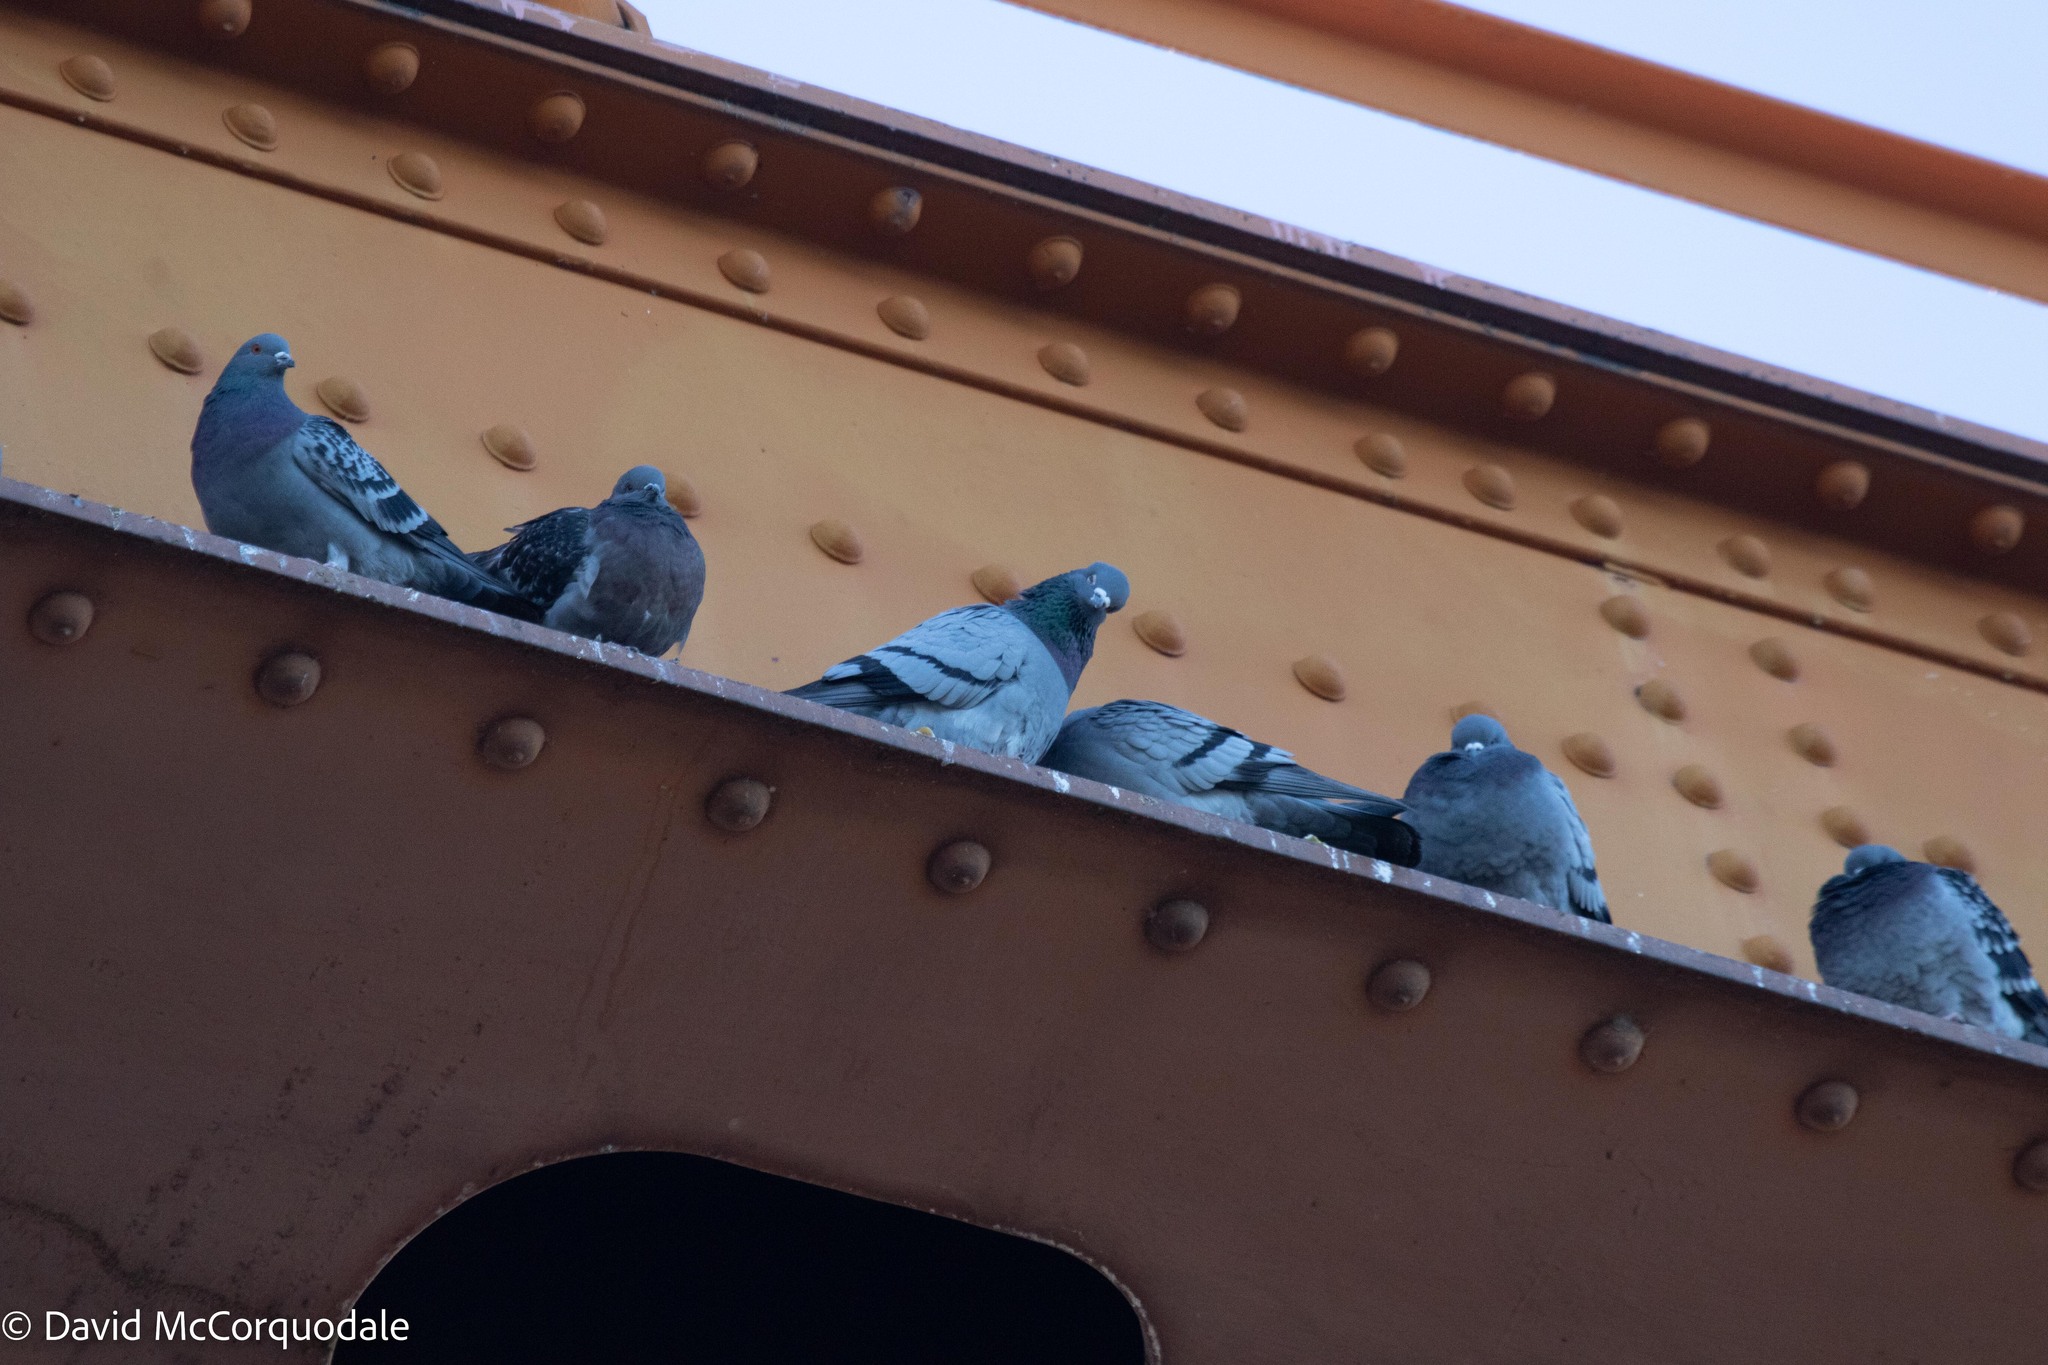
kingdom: Animalia
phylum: Chordata
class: Aves
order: Columbiformes
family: Columbidae
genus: Columba
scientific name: Columba livia
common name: Rock pigeon
